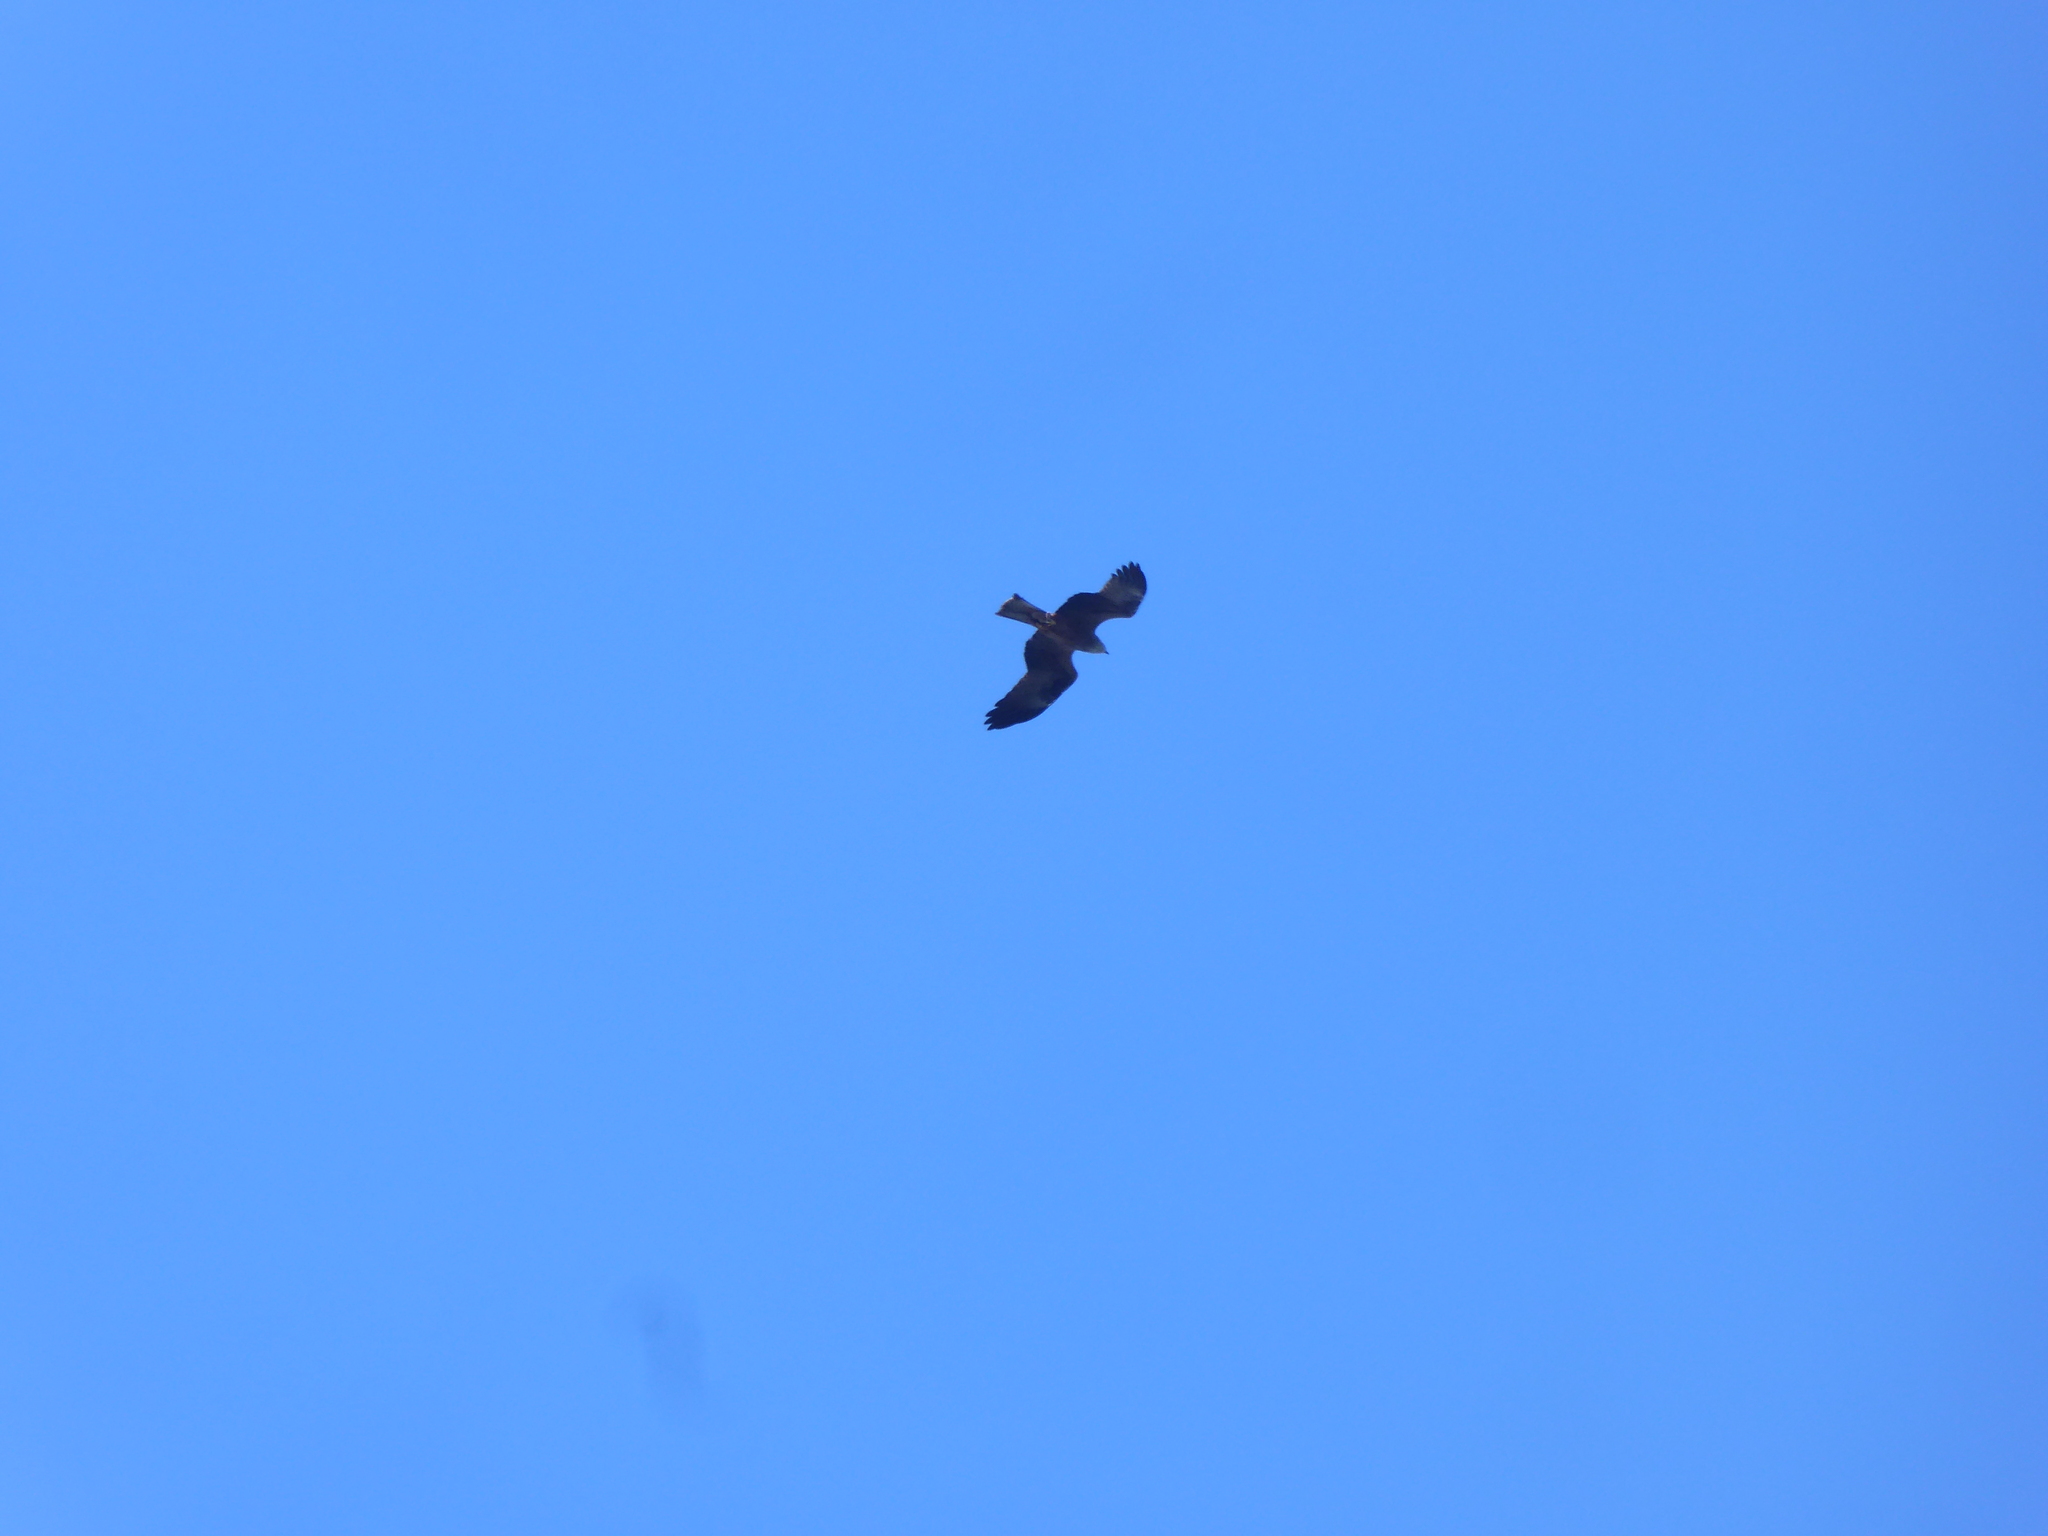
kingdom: Animalia
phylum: Chordata
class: Aves
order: Accipitriformes
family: Accipitridae
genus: Milvus
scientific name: Milvus migrans
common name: Black kite
